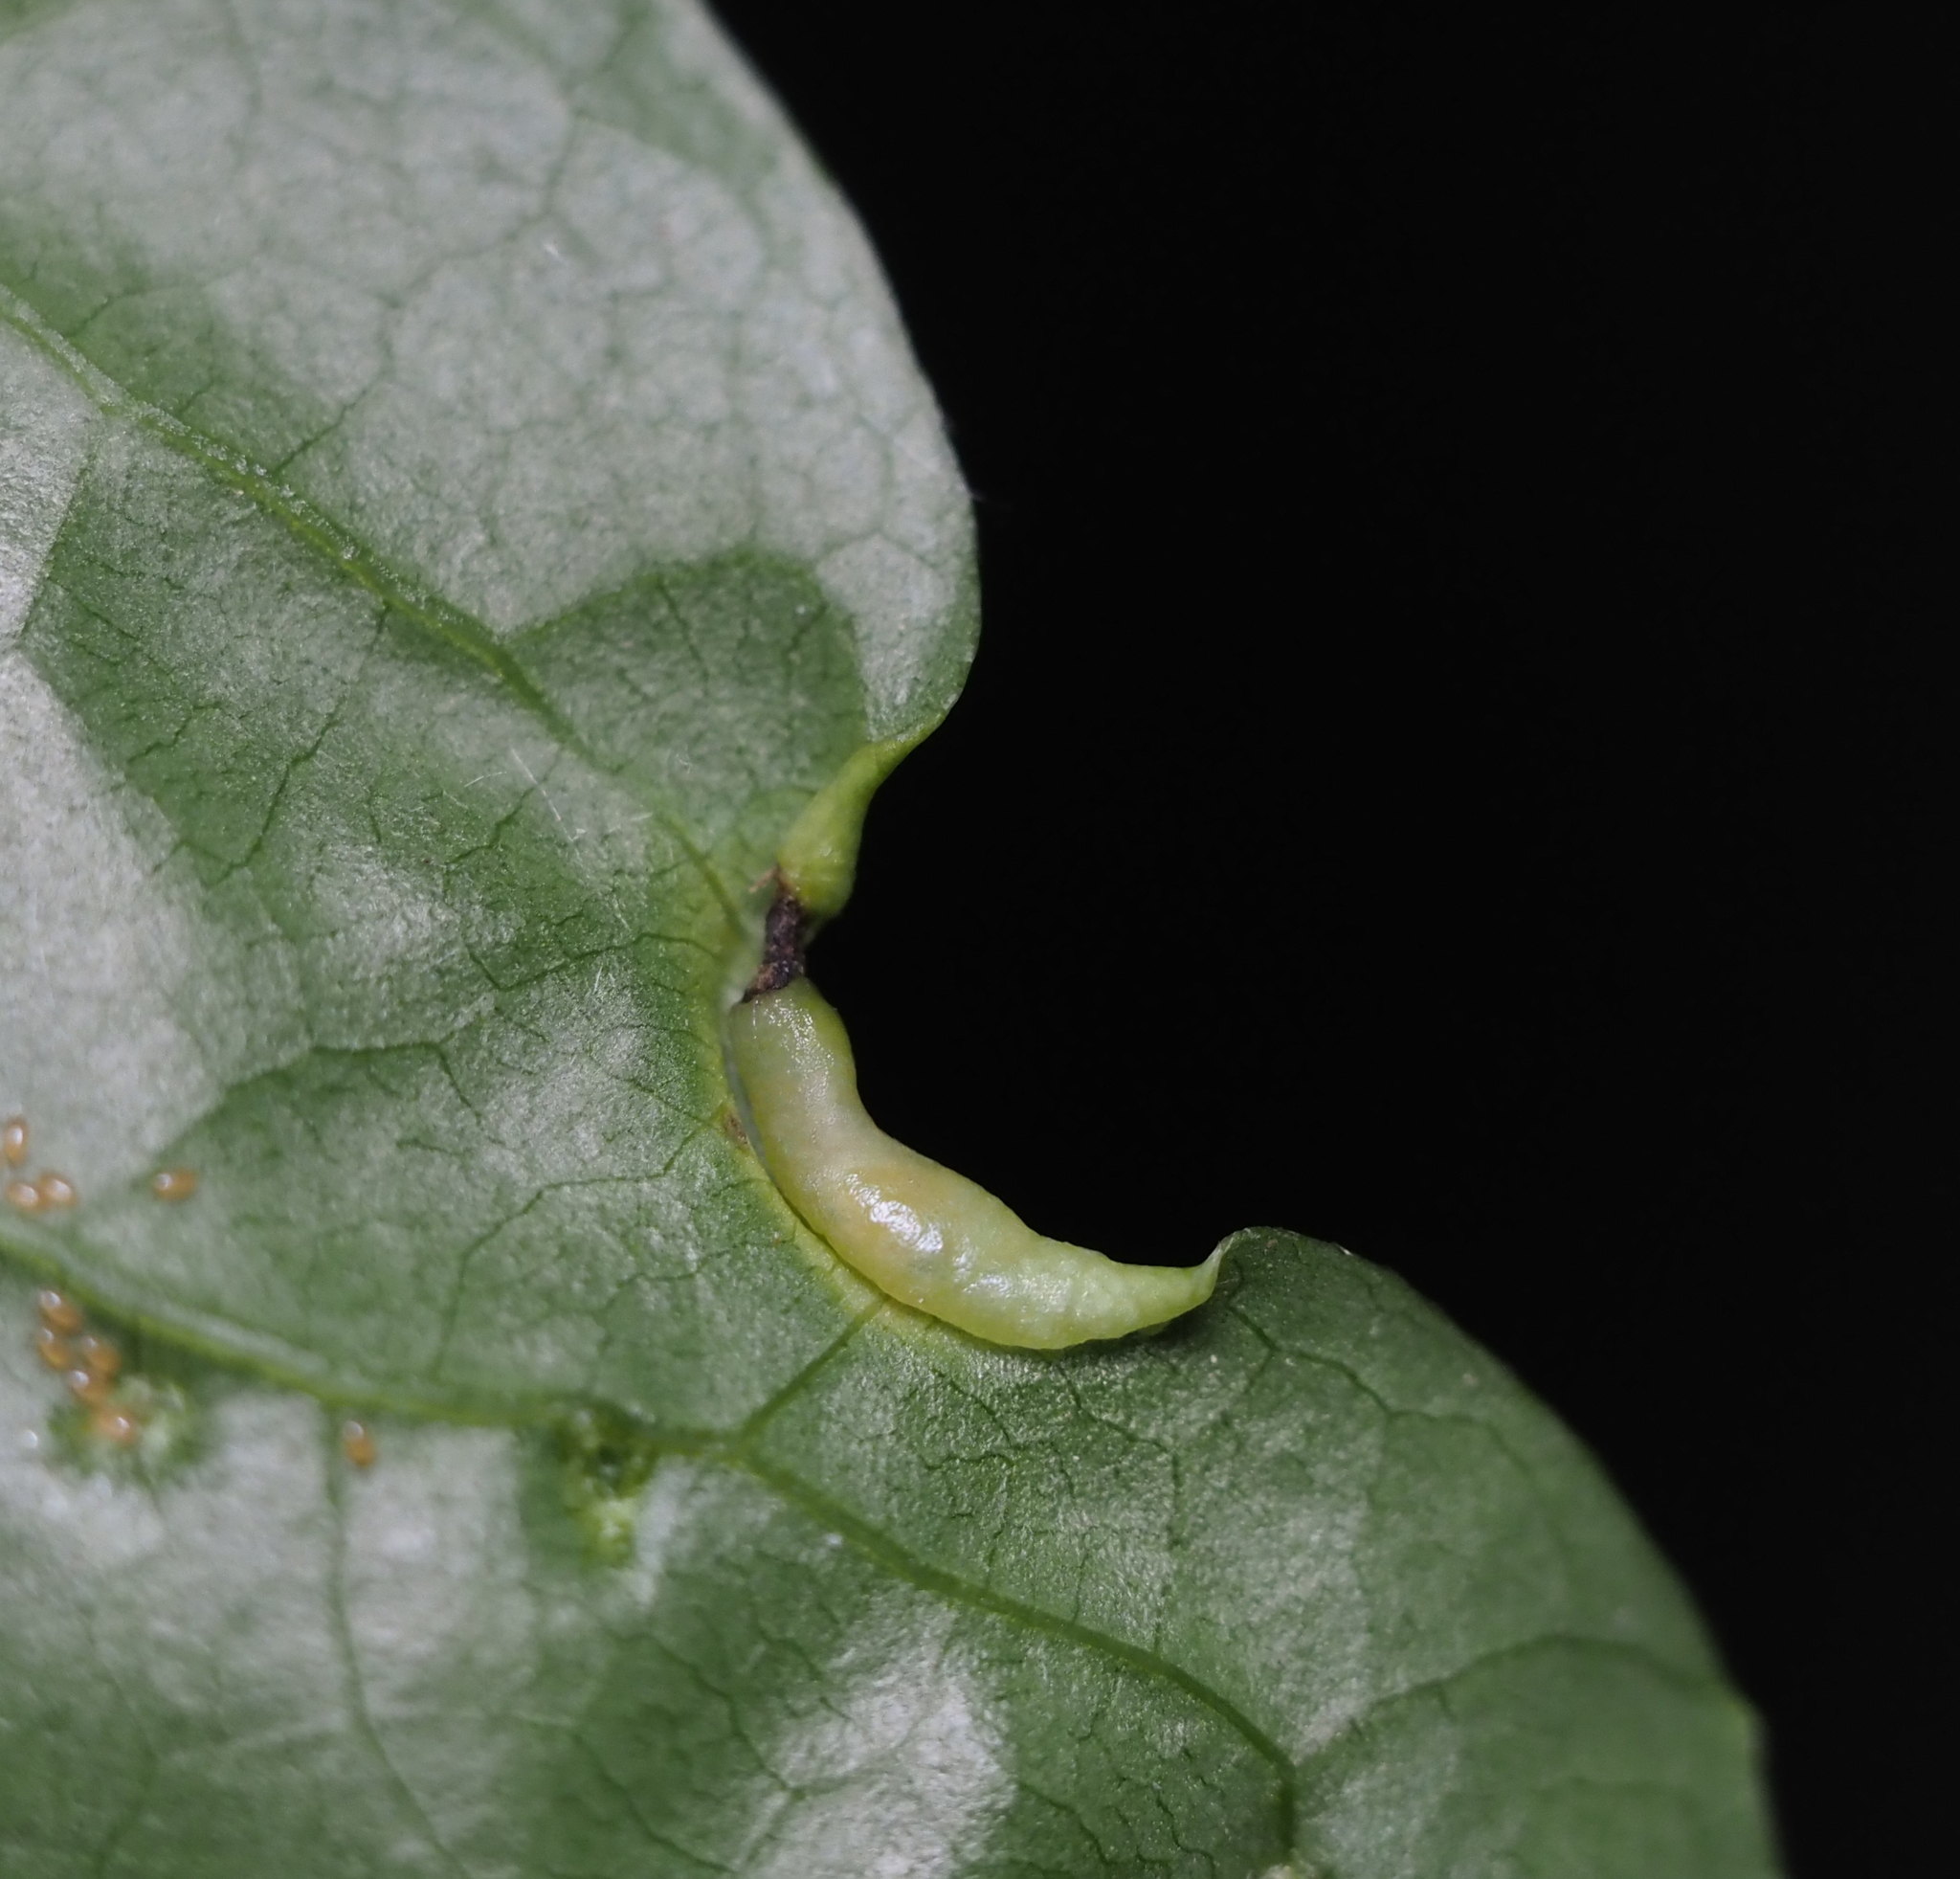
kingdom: Animalia
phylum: Arthropoda
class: Insecta
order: Hemiptera
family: Phylloxeridae
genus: Phylloxerina
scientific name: Phylloxerina nyssae
